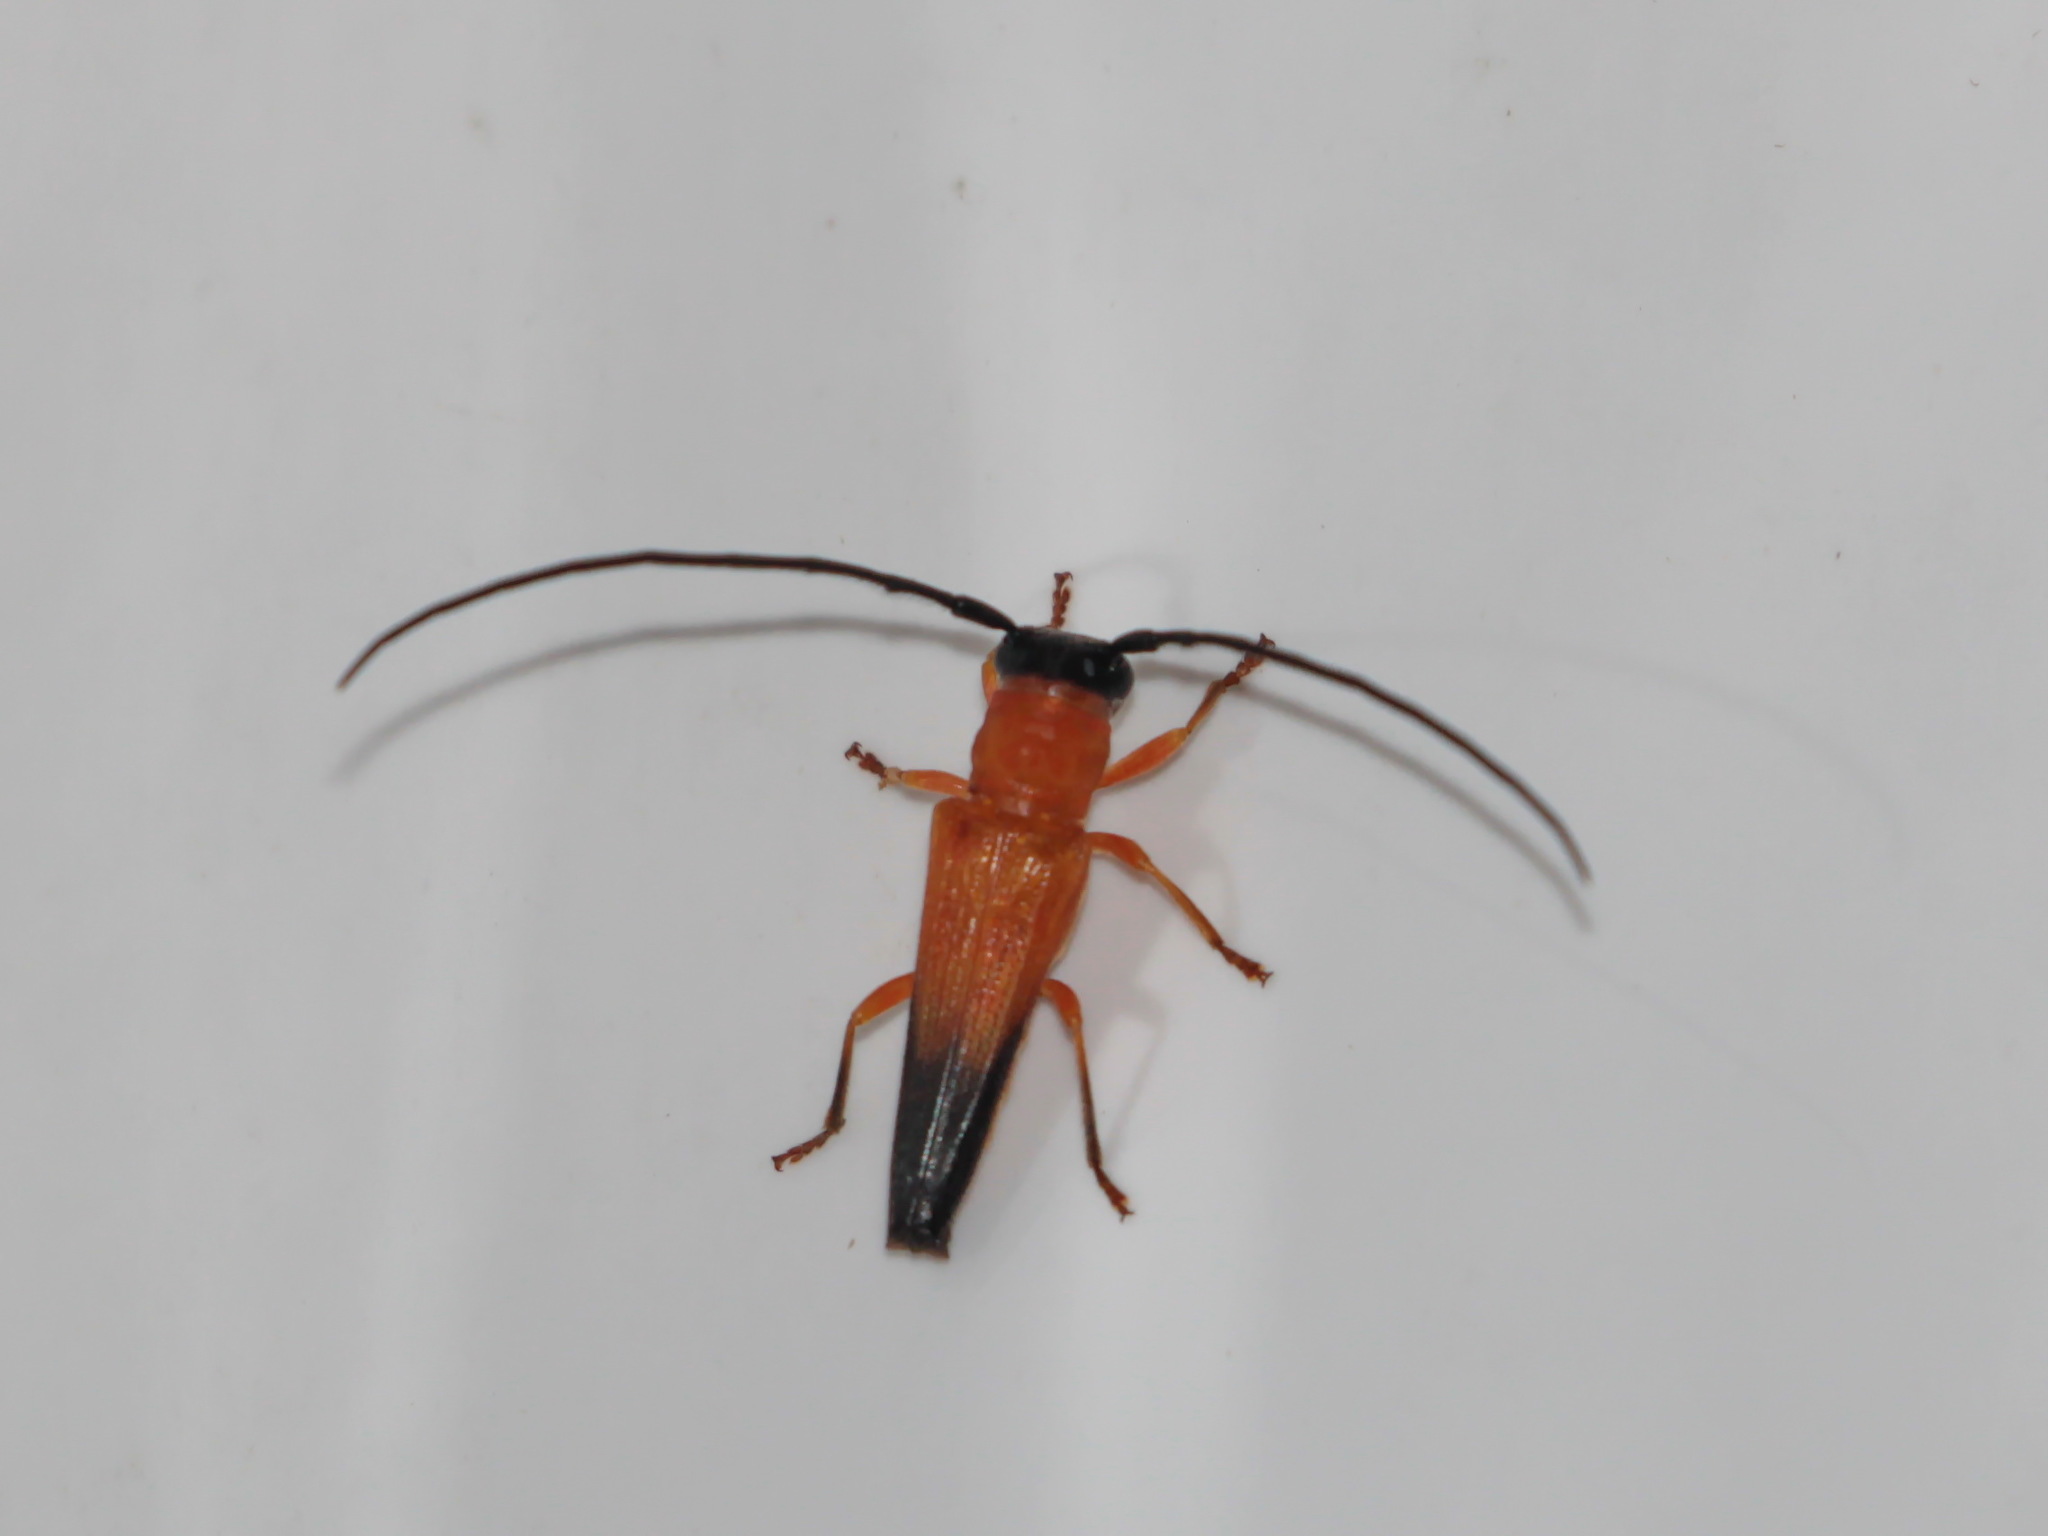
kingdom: Animalia
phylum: Arthropoda
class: Insecta
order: Coleoptera
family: Cerambycidae
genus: Nupserha
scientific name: Nupserha fricator
